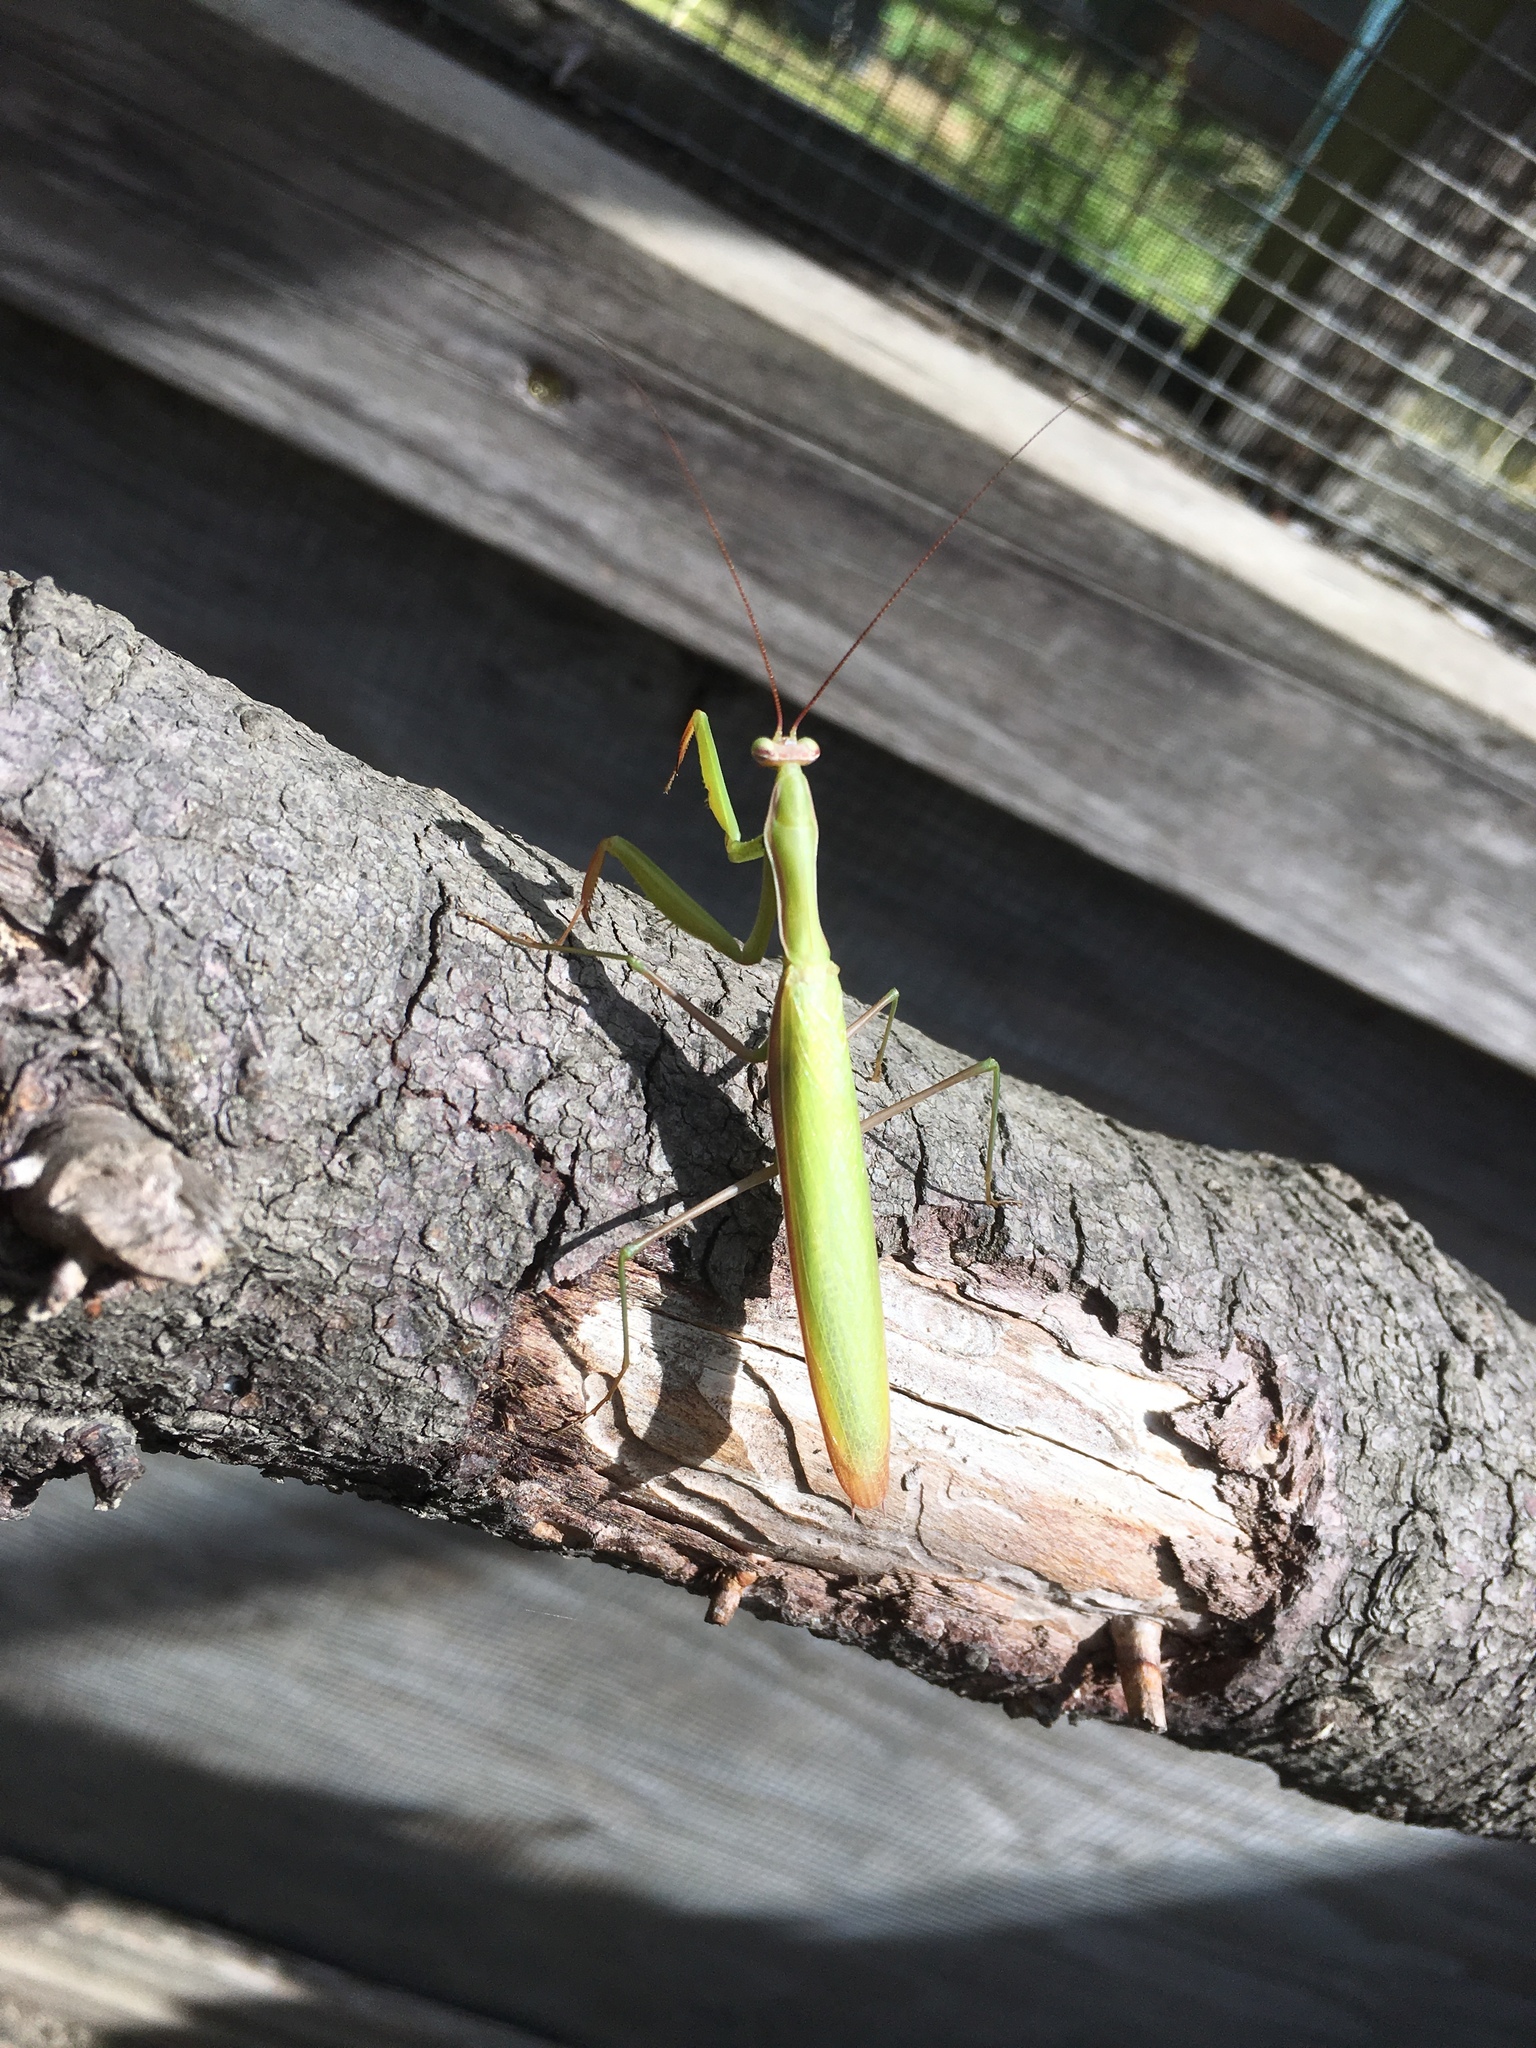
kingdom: Animalia
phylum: Arthropoda
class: Insecta
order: Mantodea
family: Mantidae
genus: Mantis
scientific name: Mantis religiosa
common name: Praying mantis
